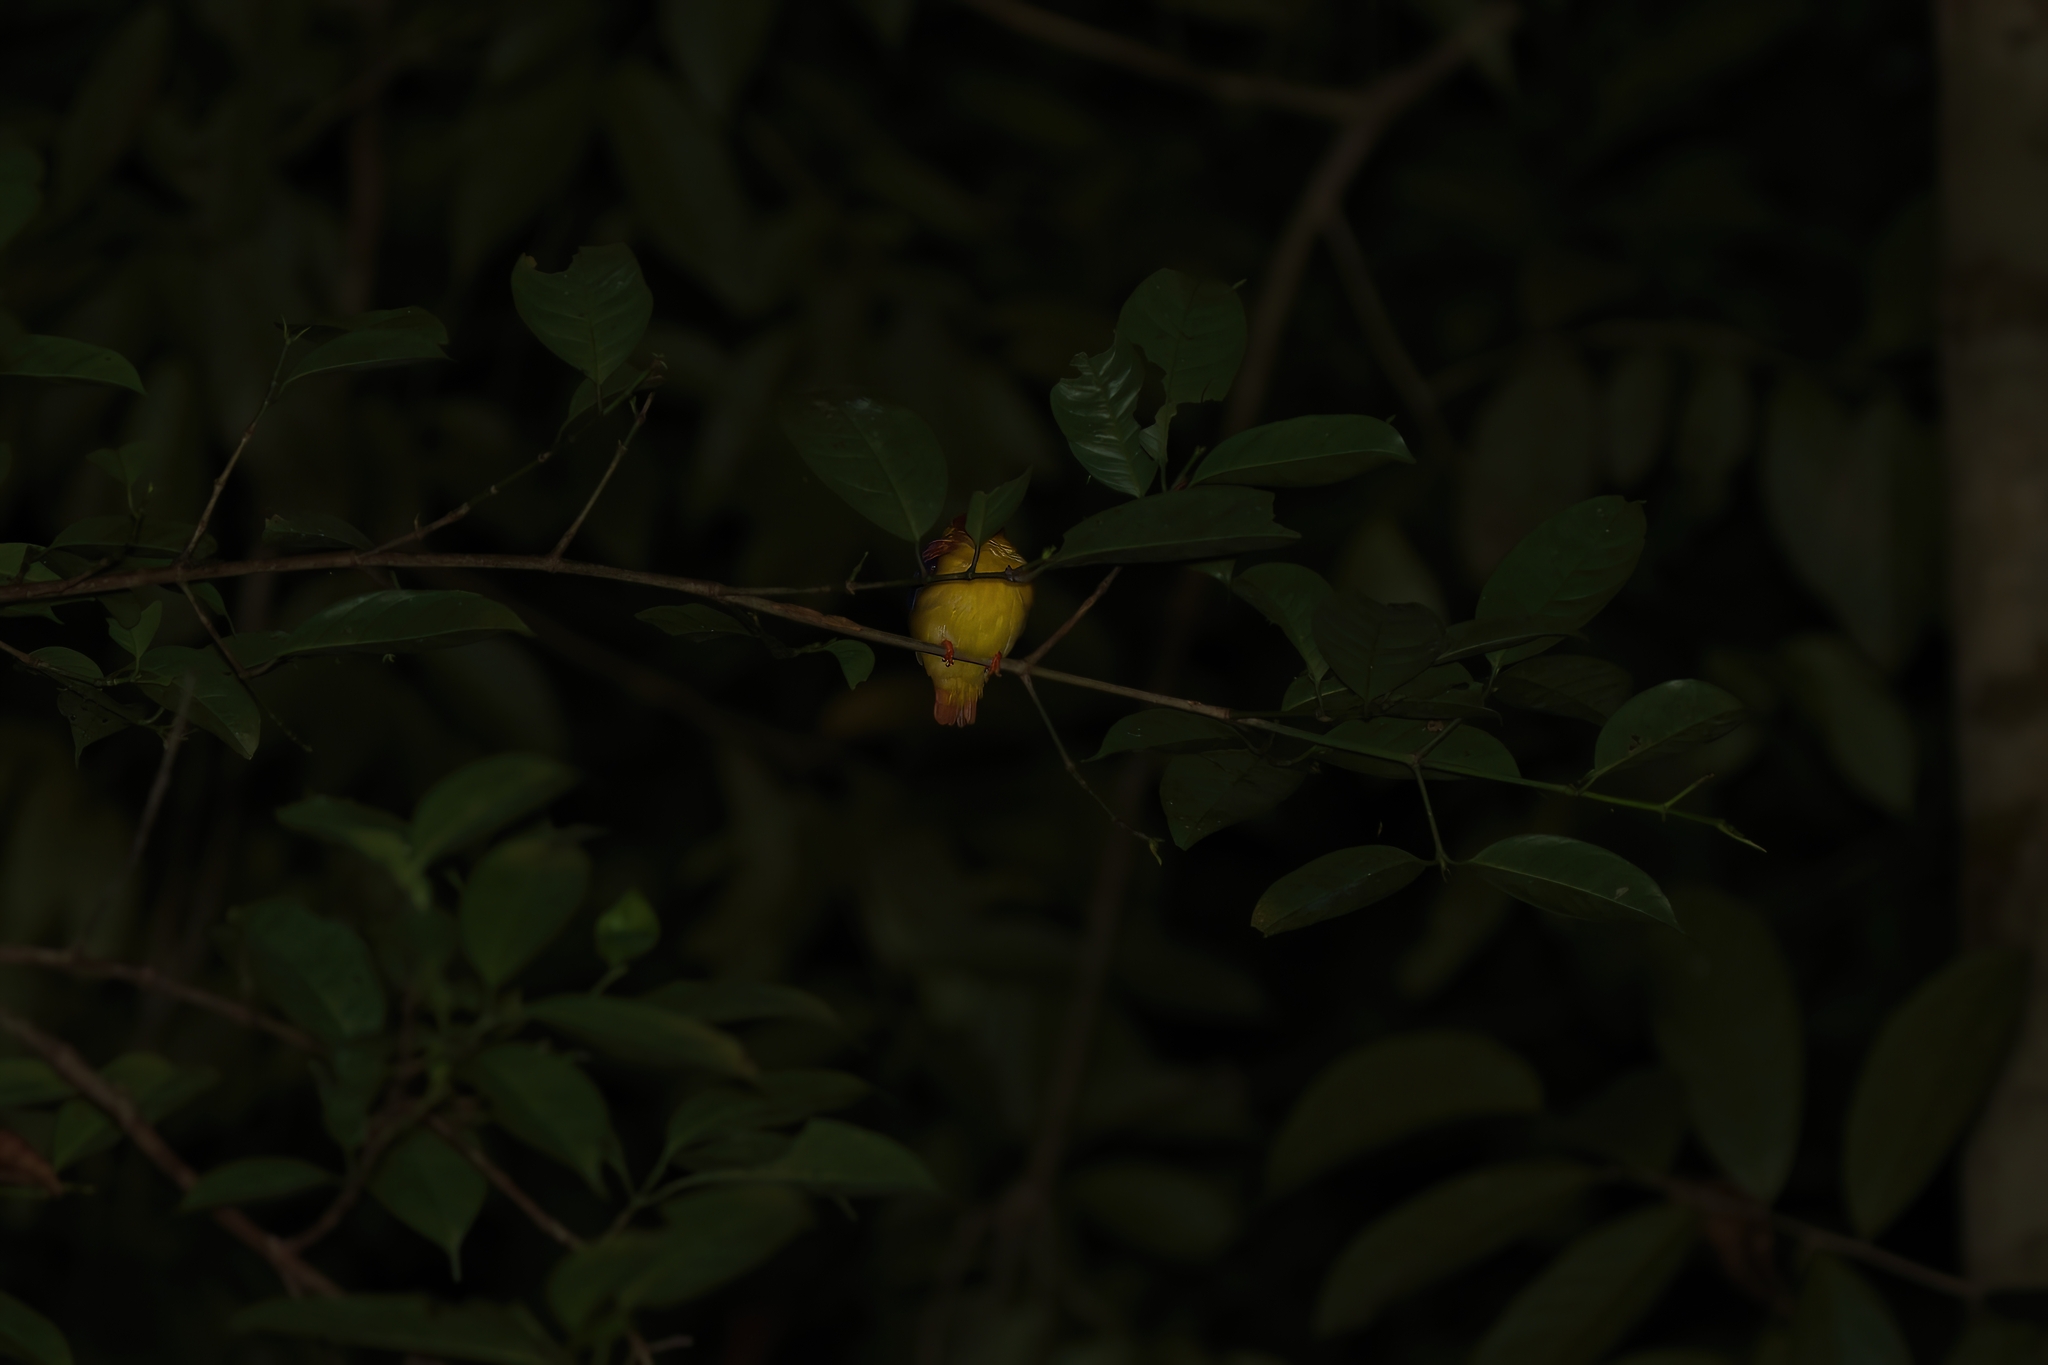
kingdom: Animalia
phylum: Chordata
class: Aves
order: Coraciiformes
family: Alcedinidae
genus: Ceyx
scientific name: Ceyx erithaca
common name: Oriental dwarf kingfisher
